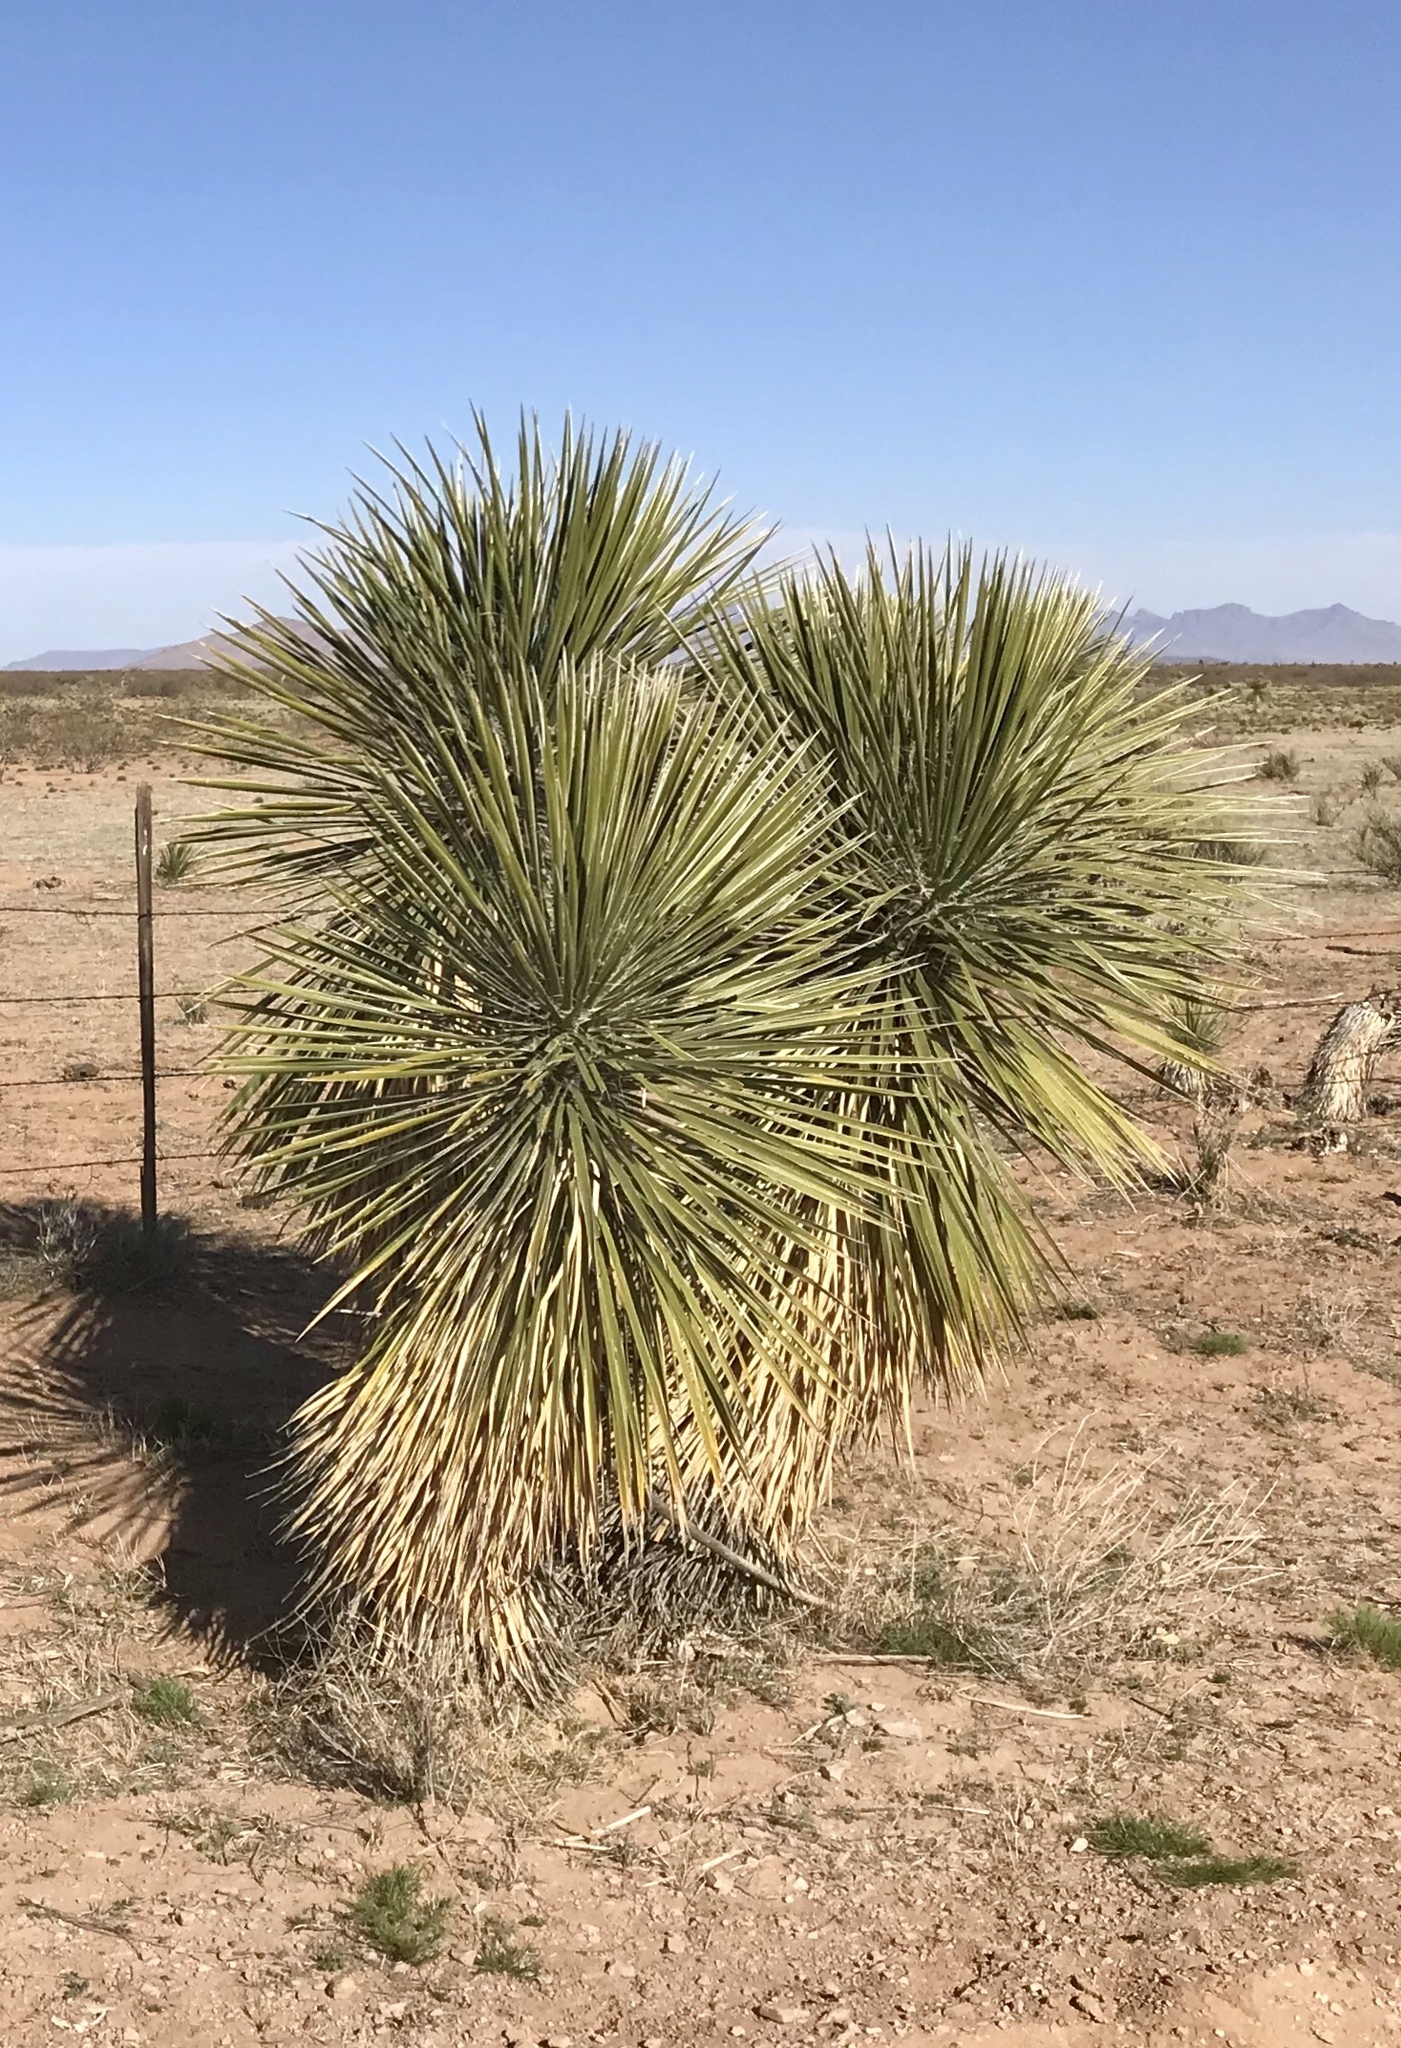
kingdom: Plantae
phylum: Tracheophyta
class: Liliopsida
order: Asparagales
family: Asparagaceae
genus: Yucca
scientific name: Yucca elata
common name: Palmella
